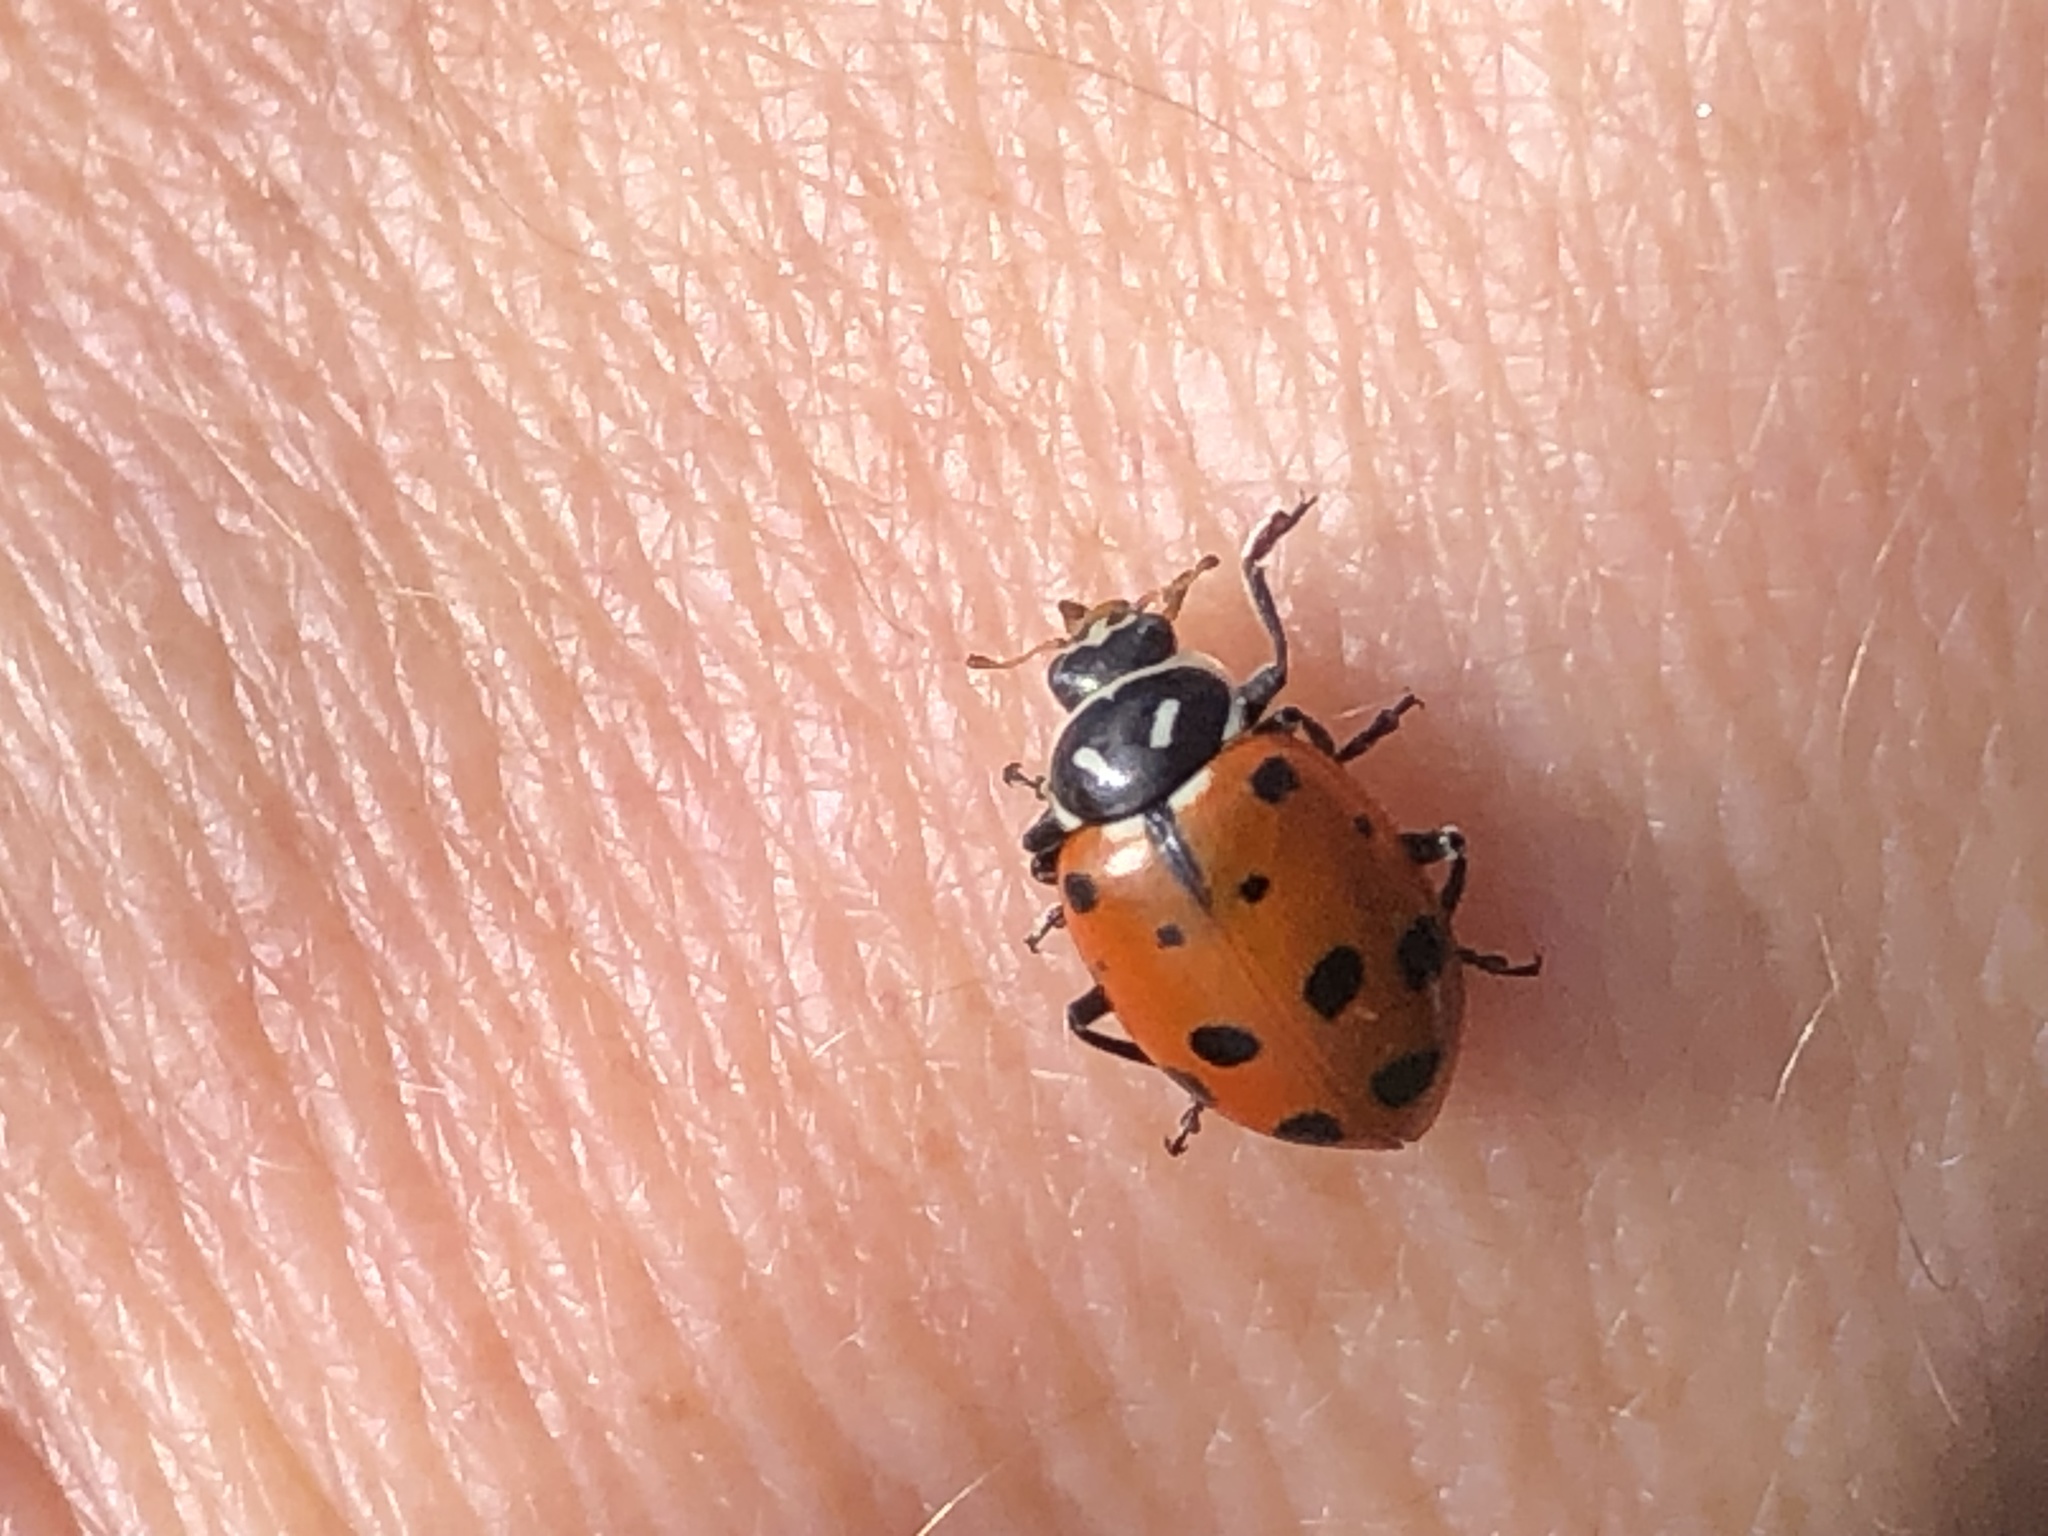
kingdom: Animalia
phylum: Arthropoda
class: Insecta
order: Coleoptera
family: Coccinellidae
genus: Hippodamia
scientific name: Hippodamia convergens
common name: Convergent lady beetle
